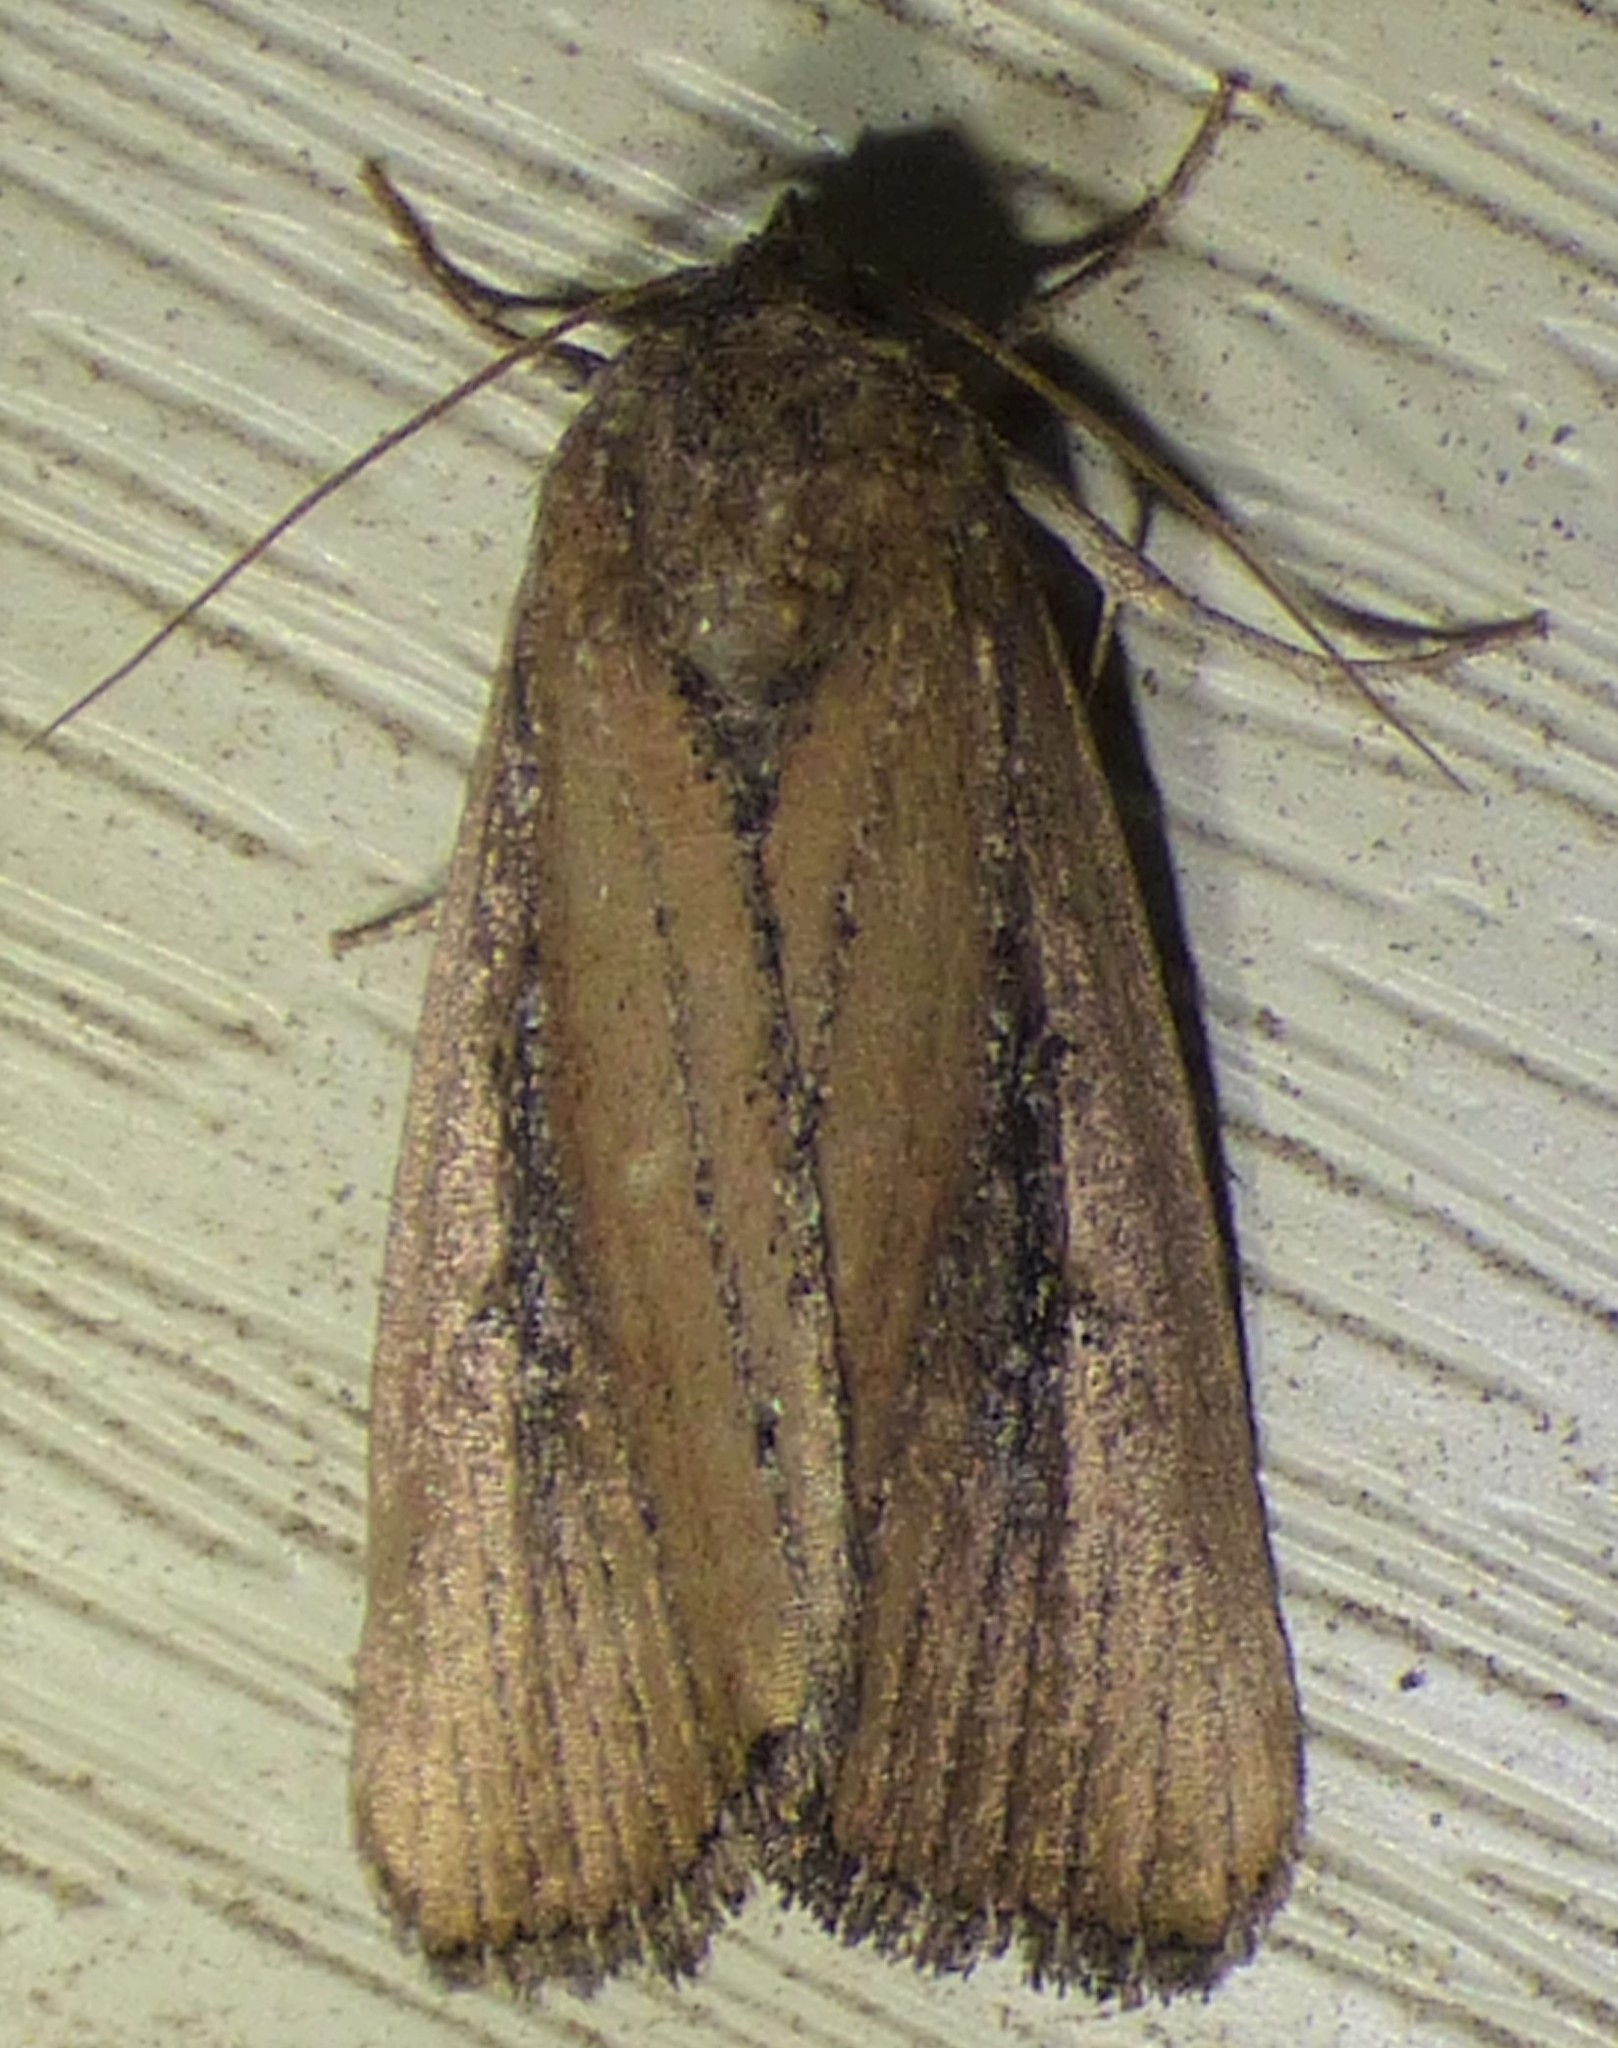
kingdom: Animalia
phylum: Arthropoda
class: Insecta
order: Lepidoptera
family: Noctuidae
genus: Condica
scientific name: Condica videns
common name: White-dotted groundling
